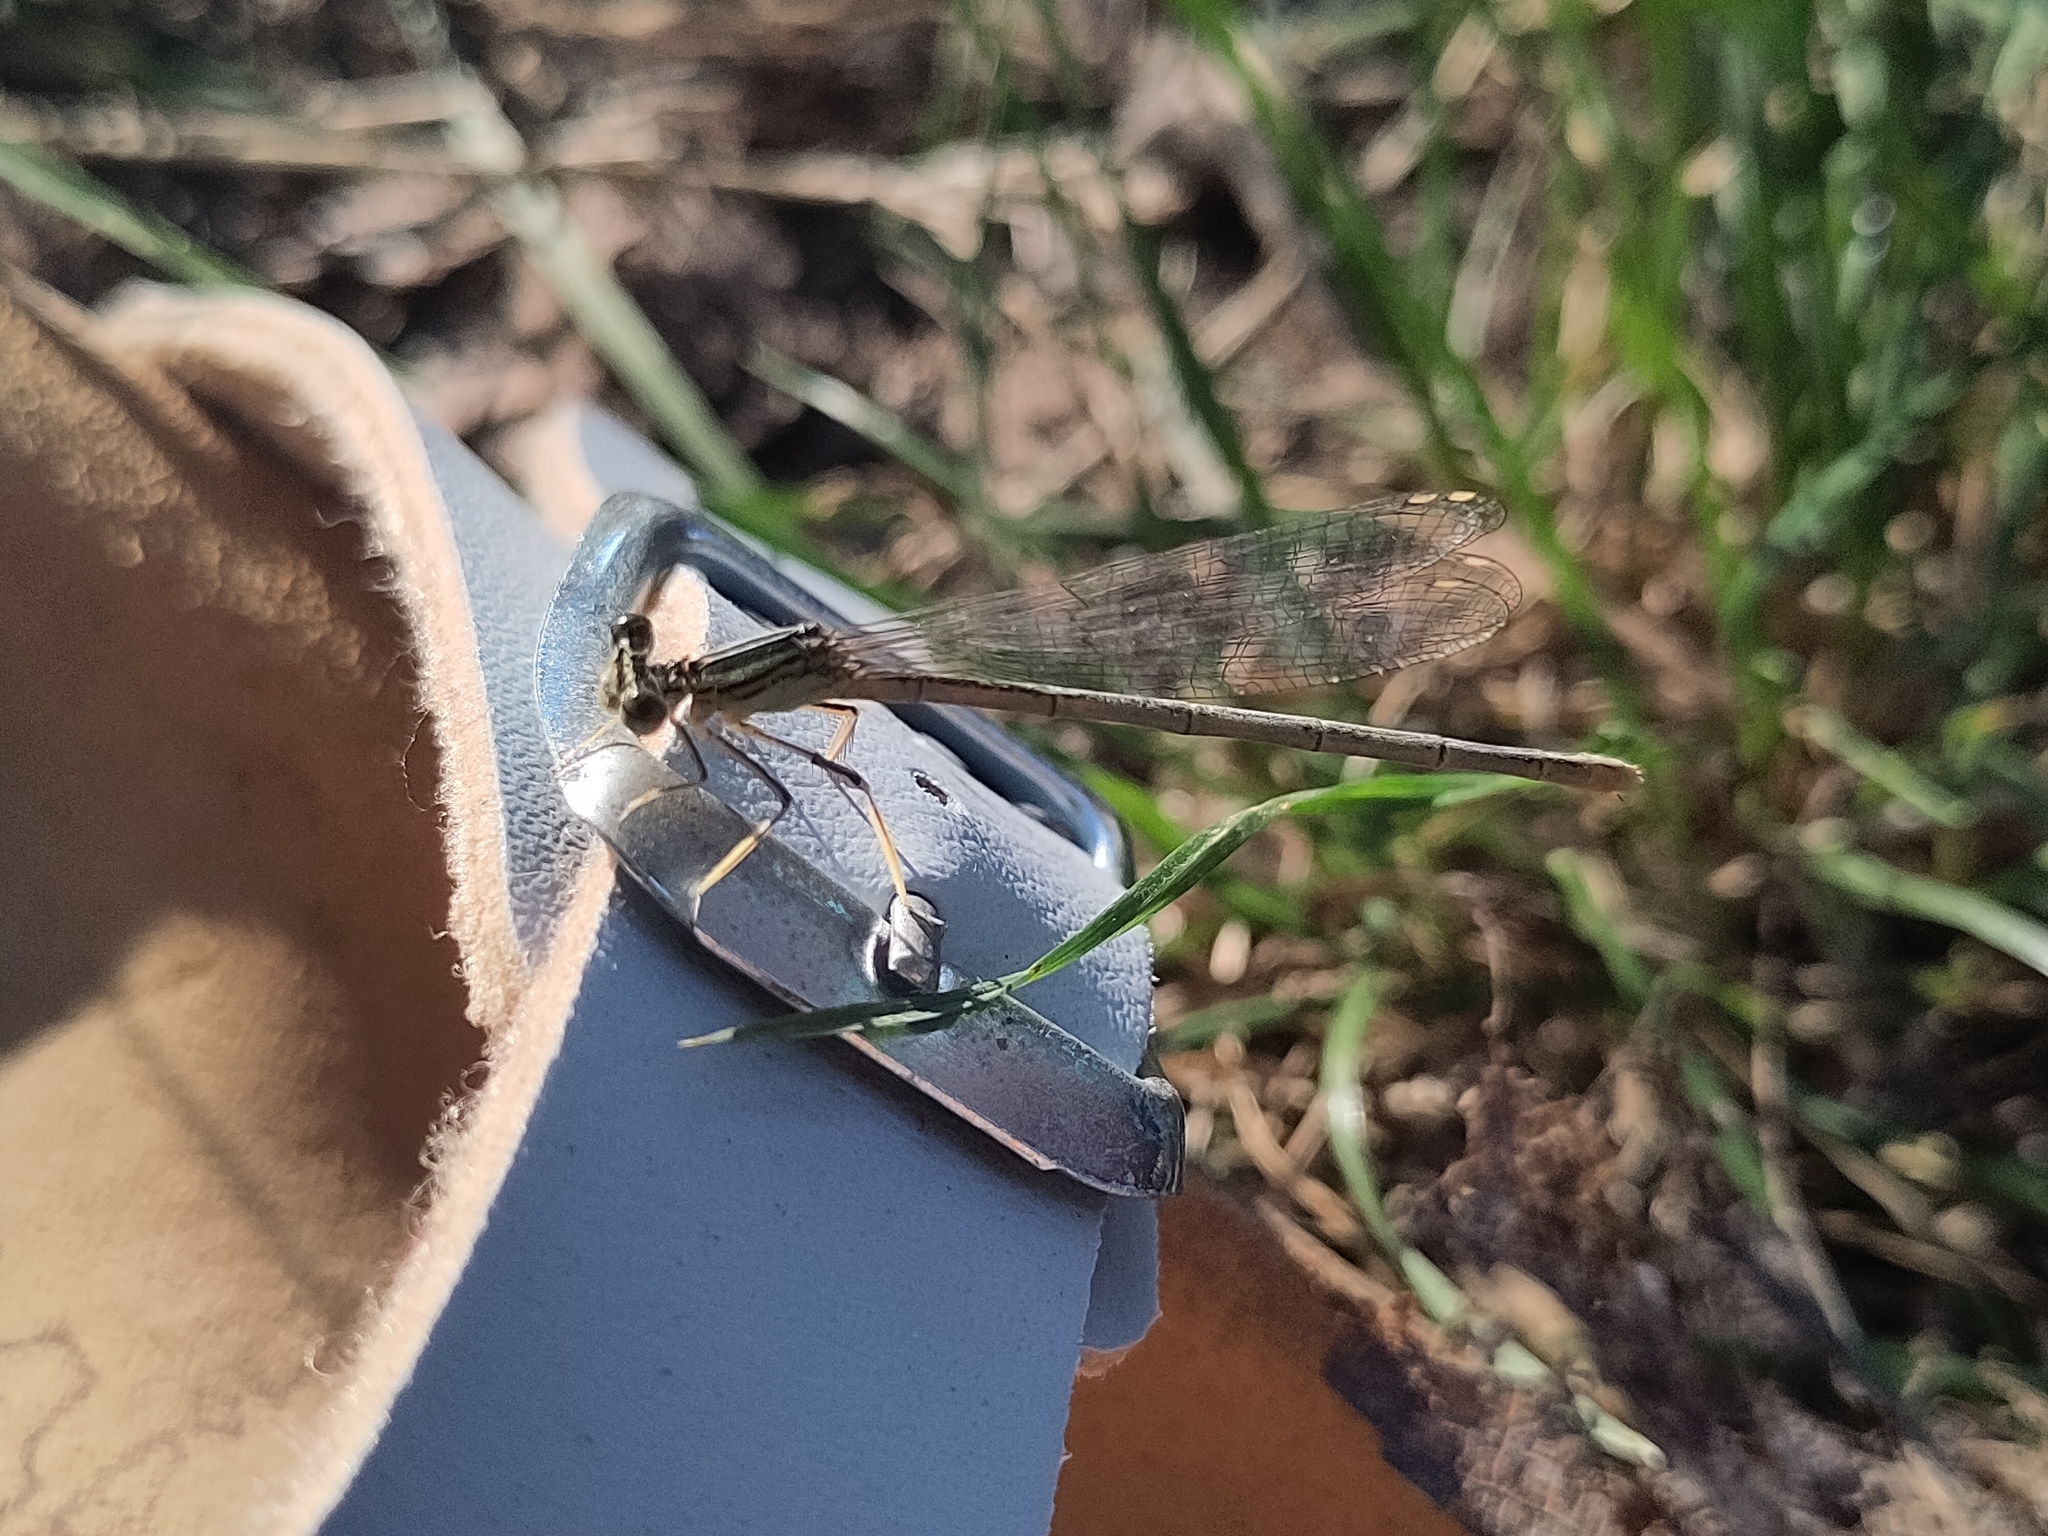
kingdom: Animalia
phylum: Arthropoda
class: Insecta
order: Odonata
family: Platycnemididae
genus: Platycnemis
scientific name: Platycnemis pennipes
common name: White-legged damselfly
